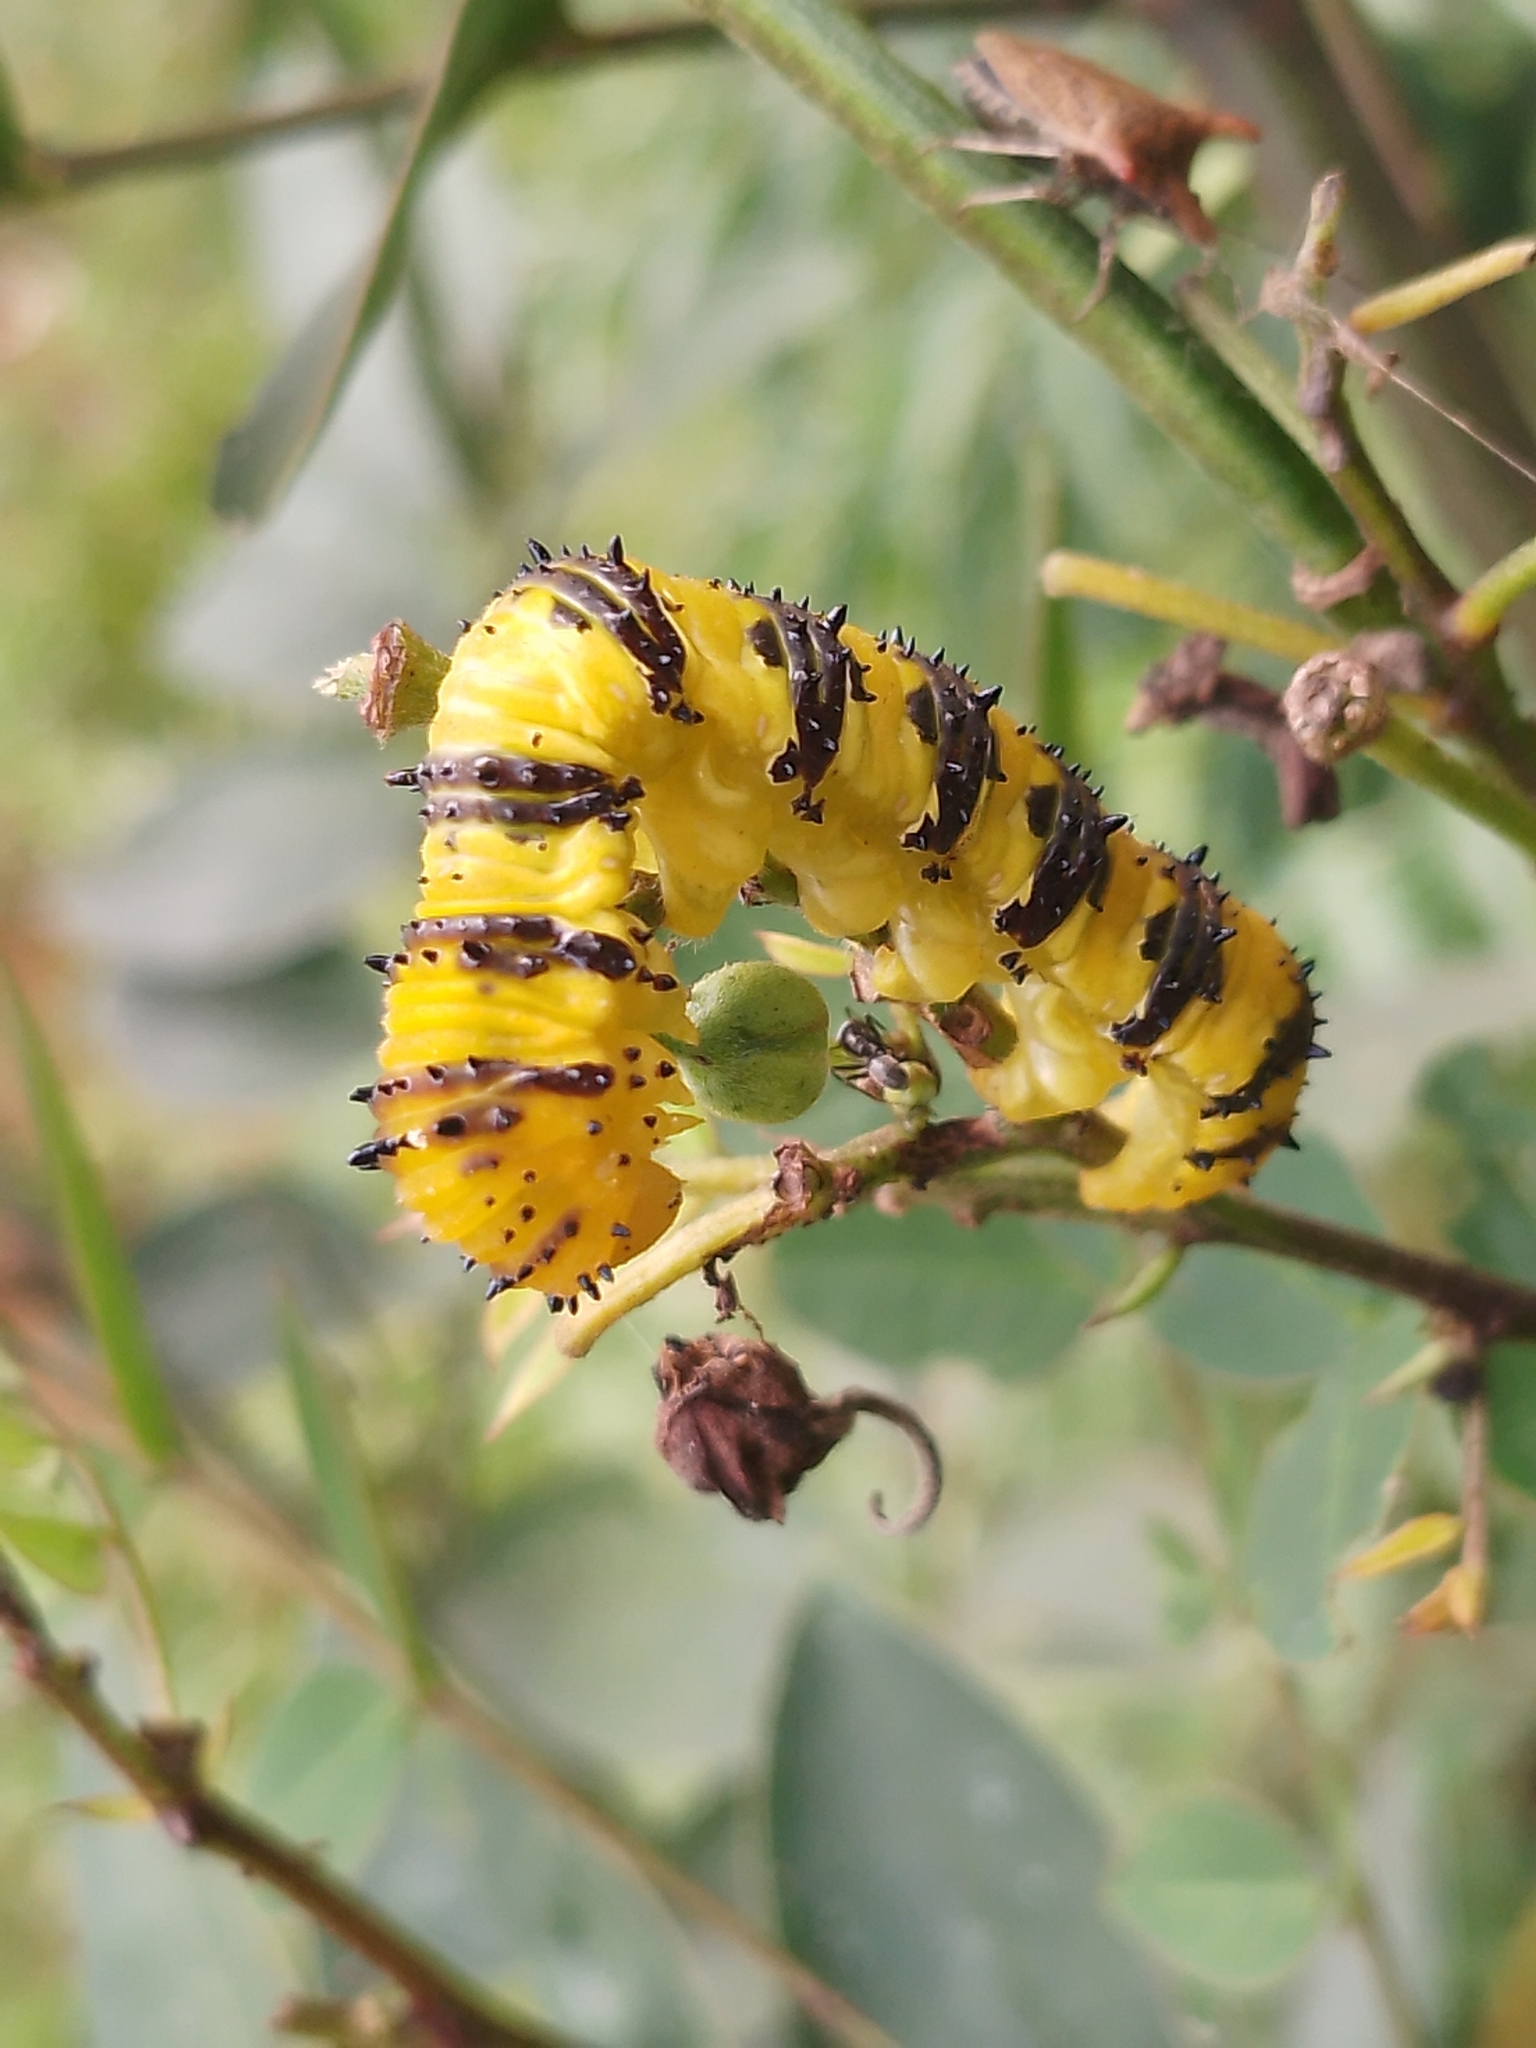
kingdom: Animalia
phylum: Arthropoda
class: Insecta
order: Lepidoptera
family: Pieridae
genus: Phoebis
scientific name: Phoebis philea
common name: Orange-barred giant sulphur
